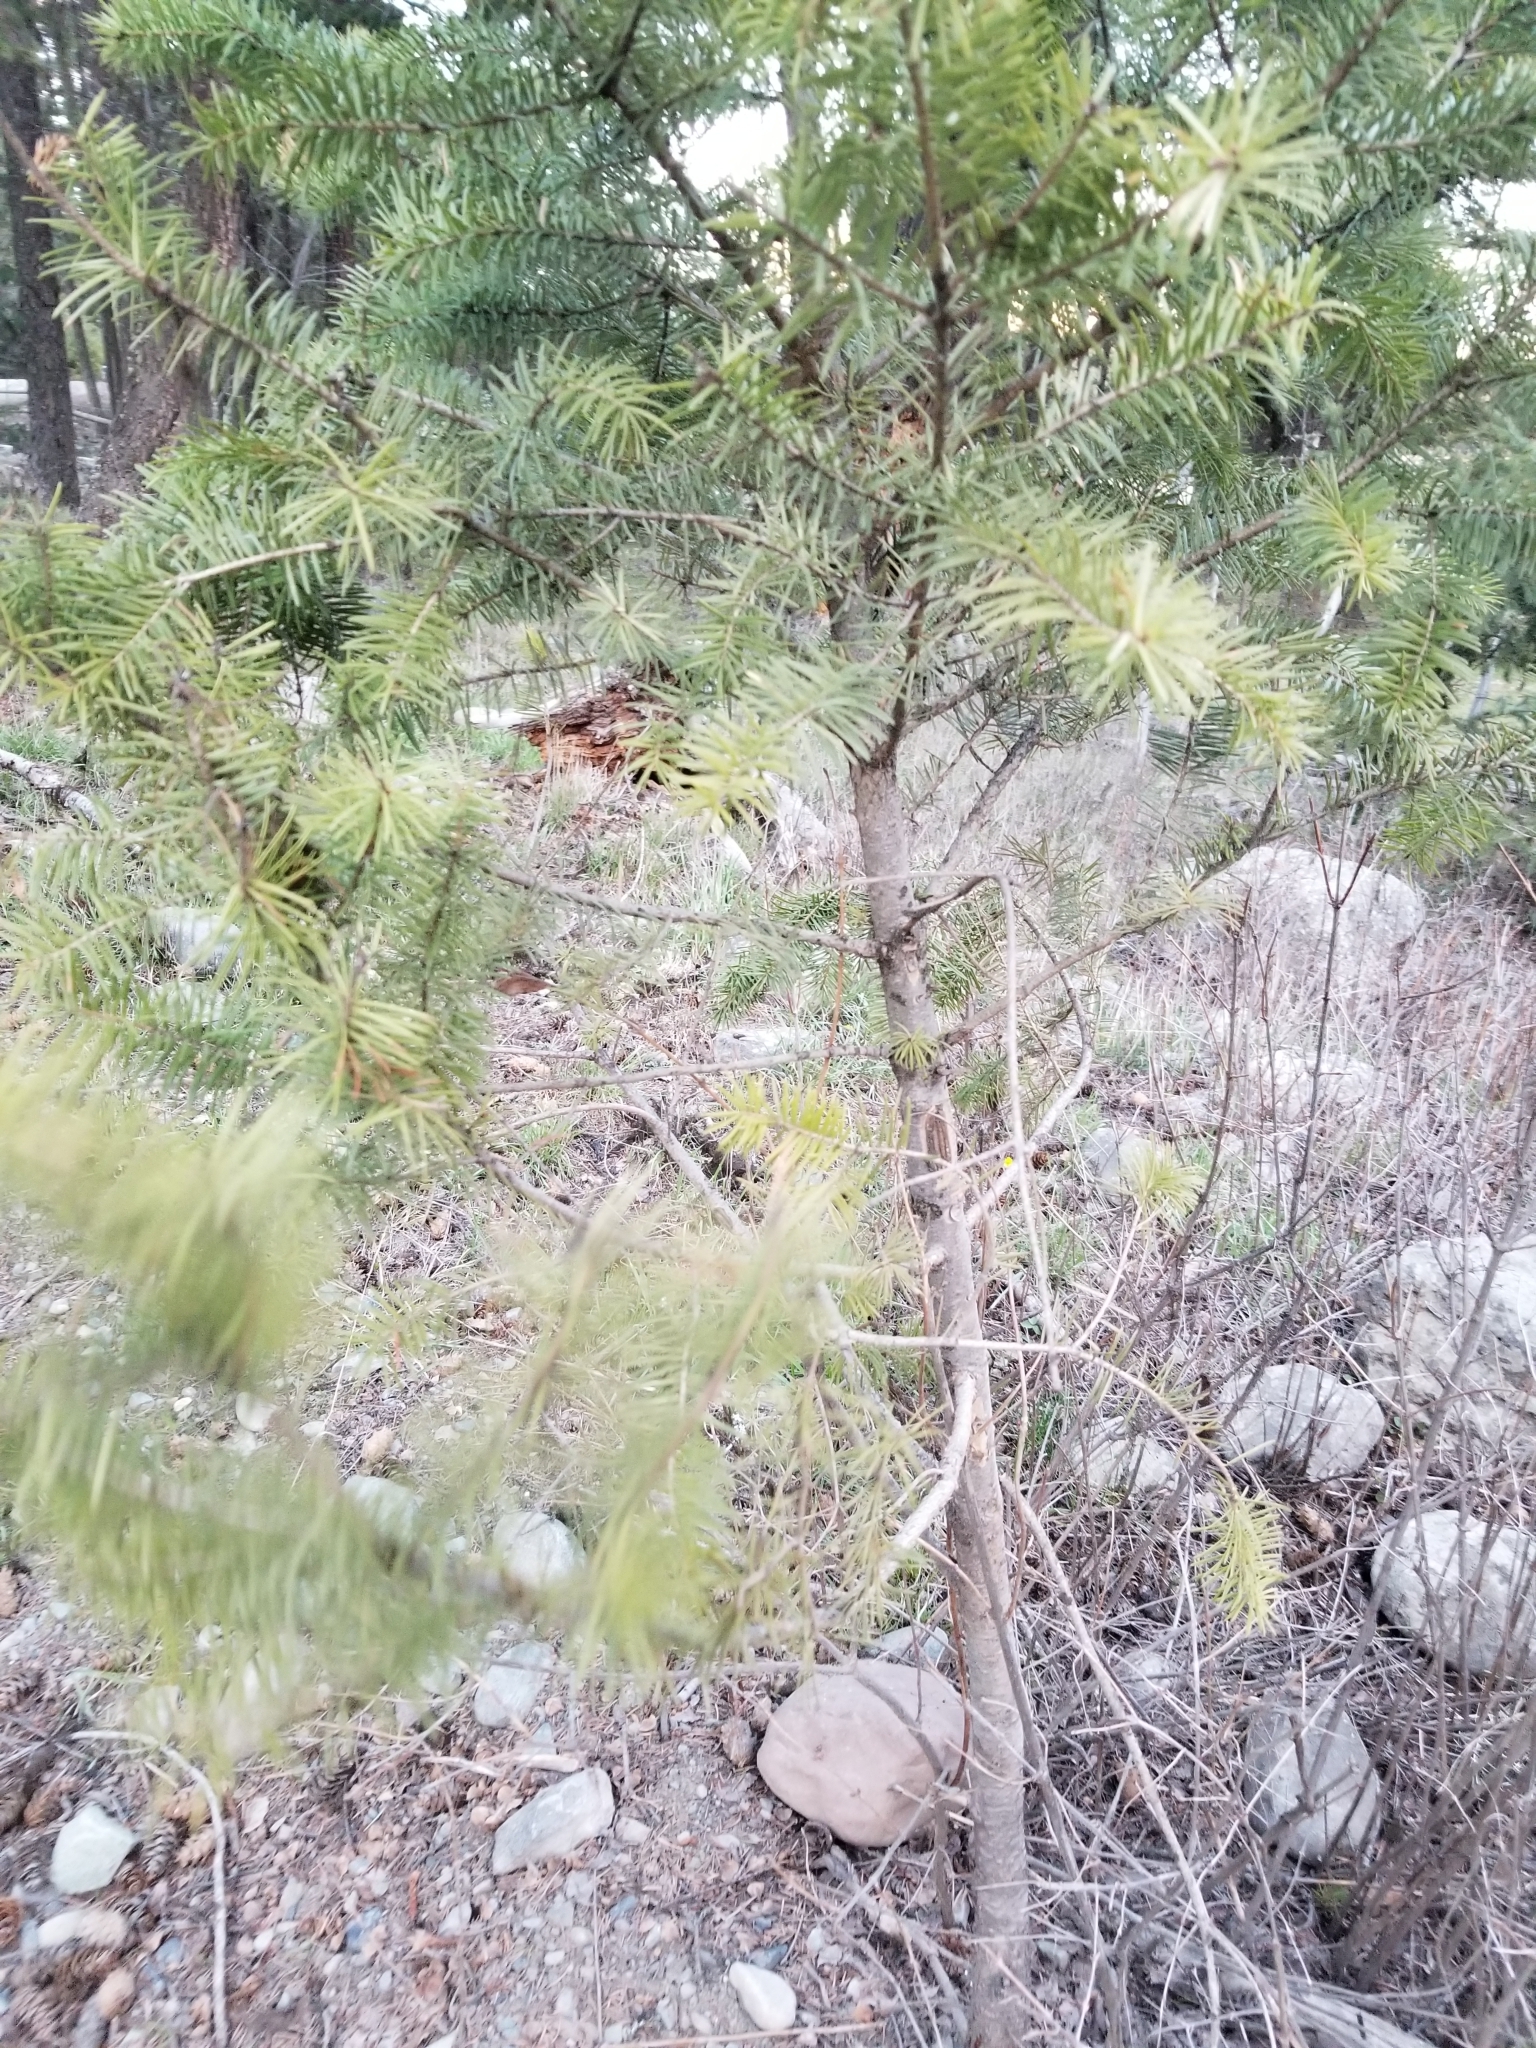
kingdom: Plantae
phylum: Tracheophyta
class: Pinopsida
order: Pinales
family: Pinaceae
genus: Pseudotsuga
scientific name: Pseudotsuga menziesii
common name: Douglas fir
